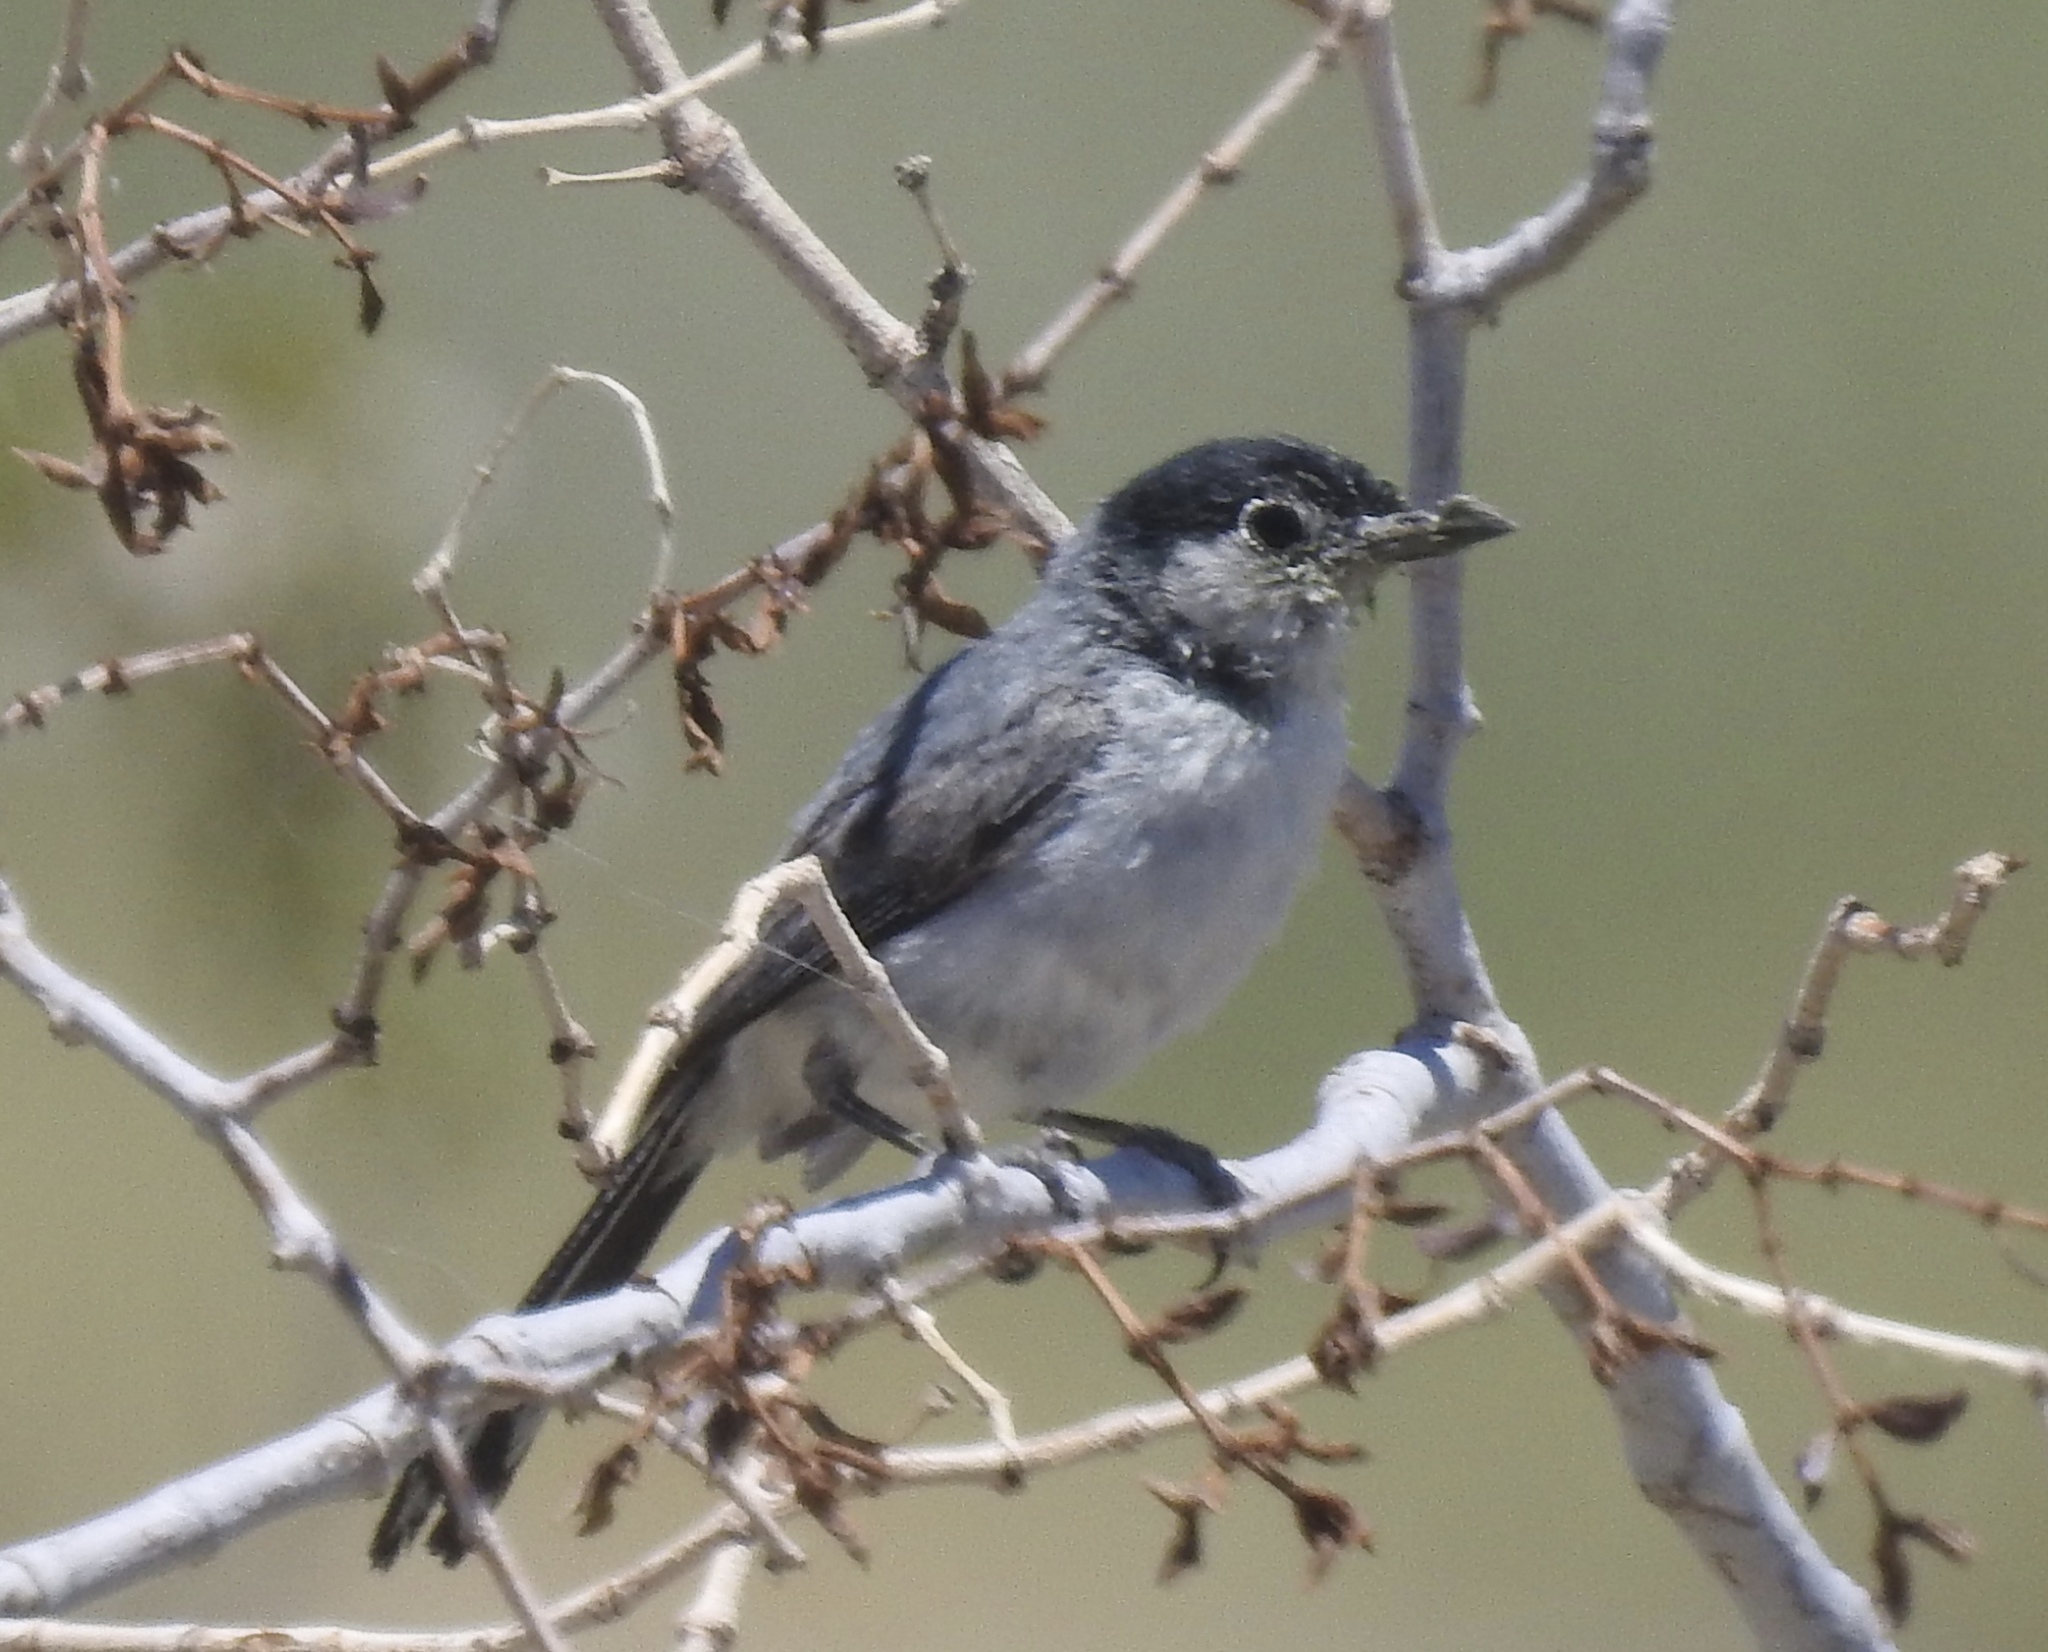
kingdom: Animalia
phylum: Chordata
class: Aves
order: Passeriformes
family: Polioptilidae
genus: Polioptila
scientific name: Polioptila melanura
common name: Black-tailed gnatcatcher
